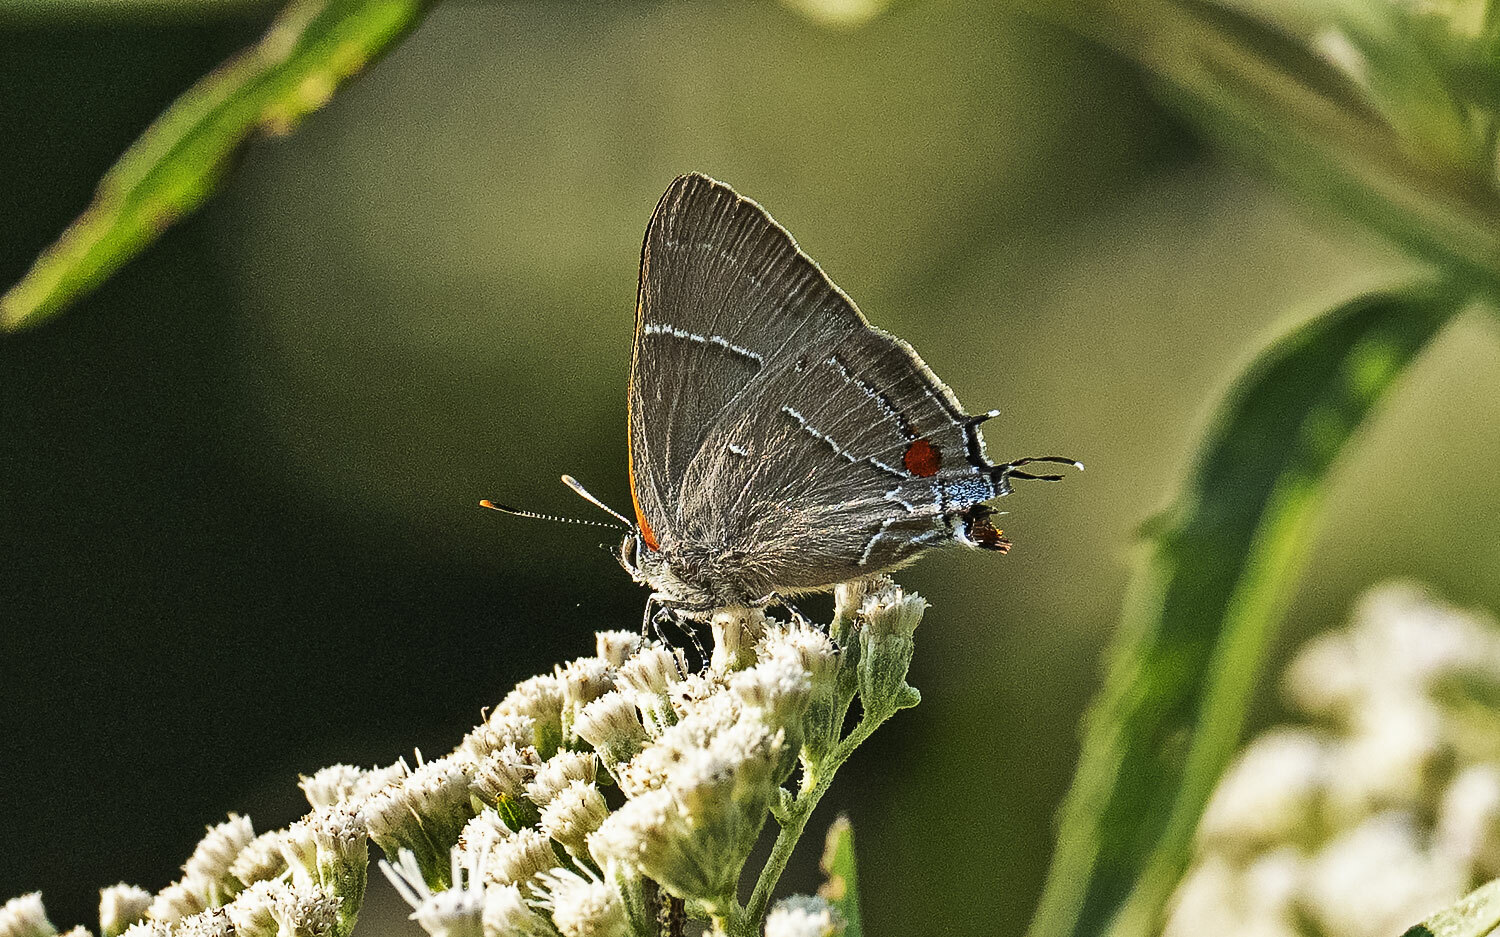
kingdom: Animalia
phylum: Arthropoda
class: Insecta
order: Lepidoptera
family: Lycaenidae
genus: Parrhasius
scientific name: Parrhasius m-album
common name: White m hairstreak
